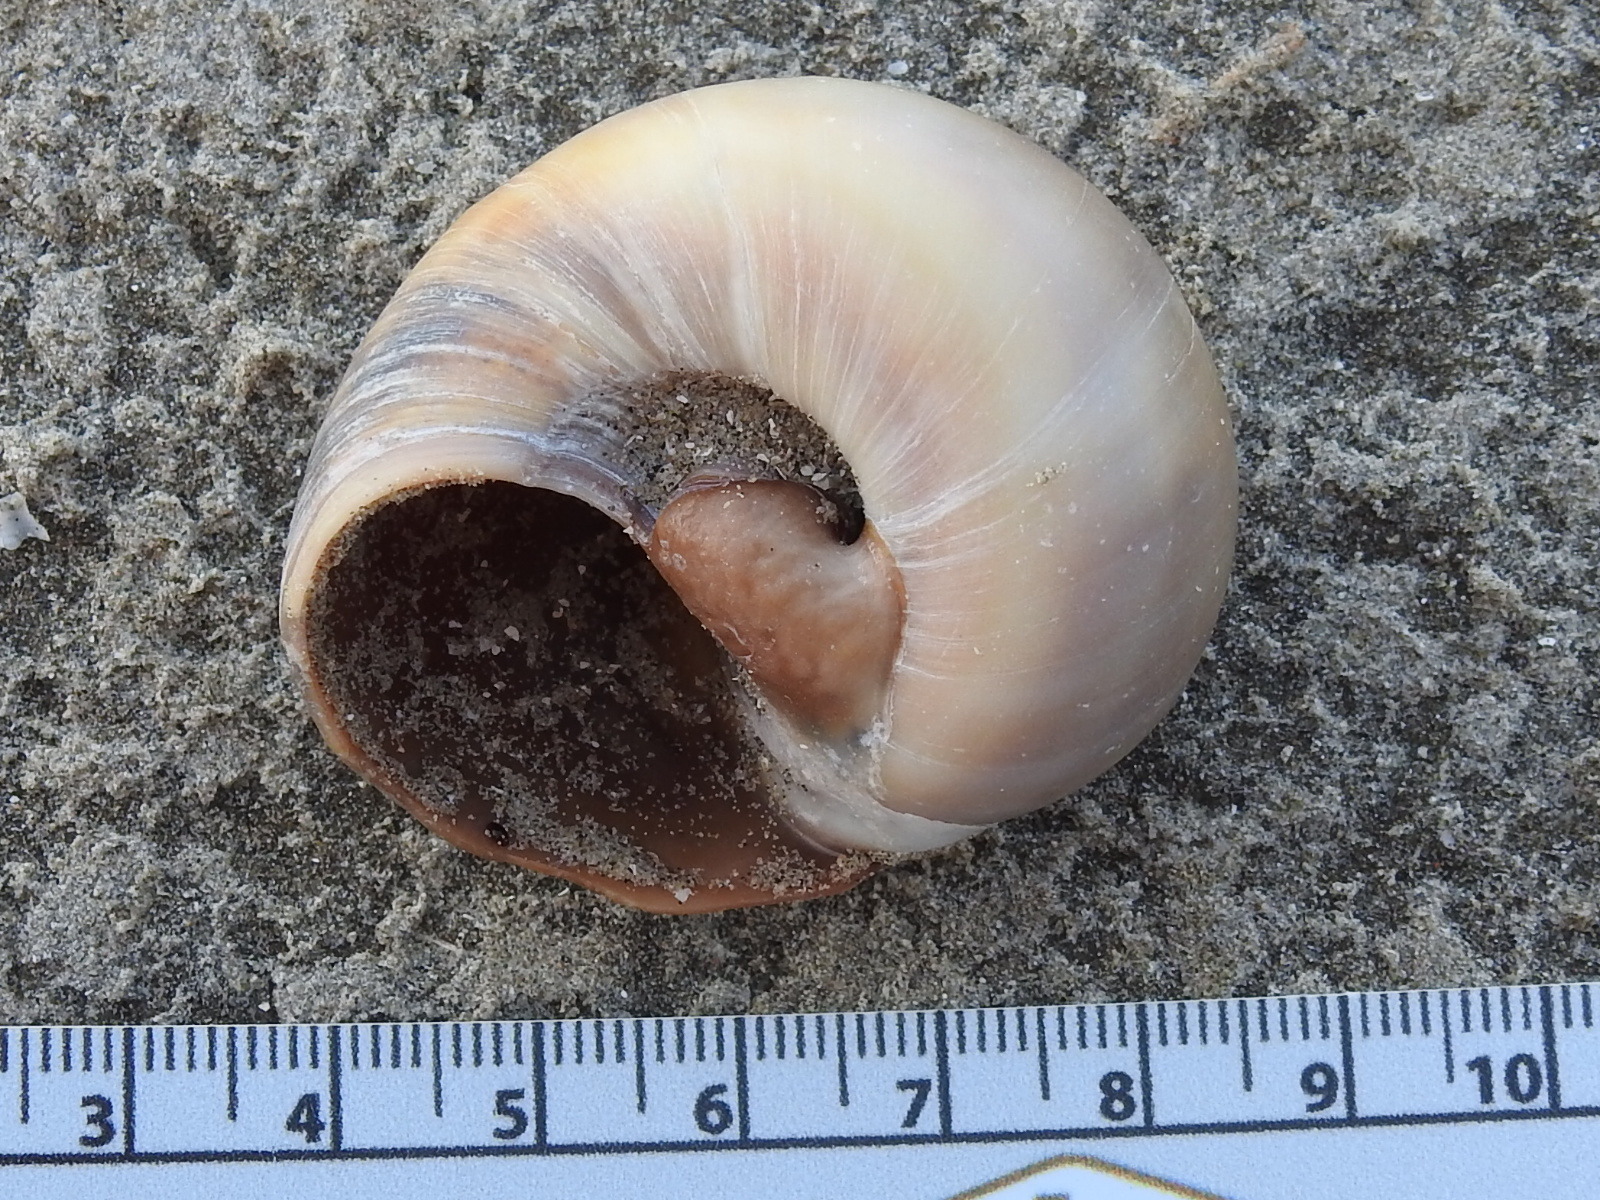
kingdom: Animalia
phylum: Mollusca
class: Gastropoda
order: Littorinimorpha
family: Naticidae
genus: Neverita
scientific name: Neverita delessertiana
